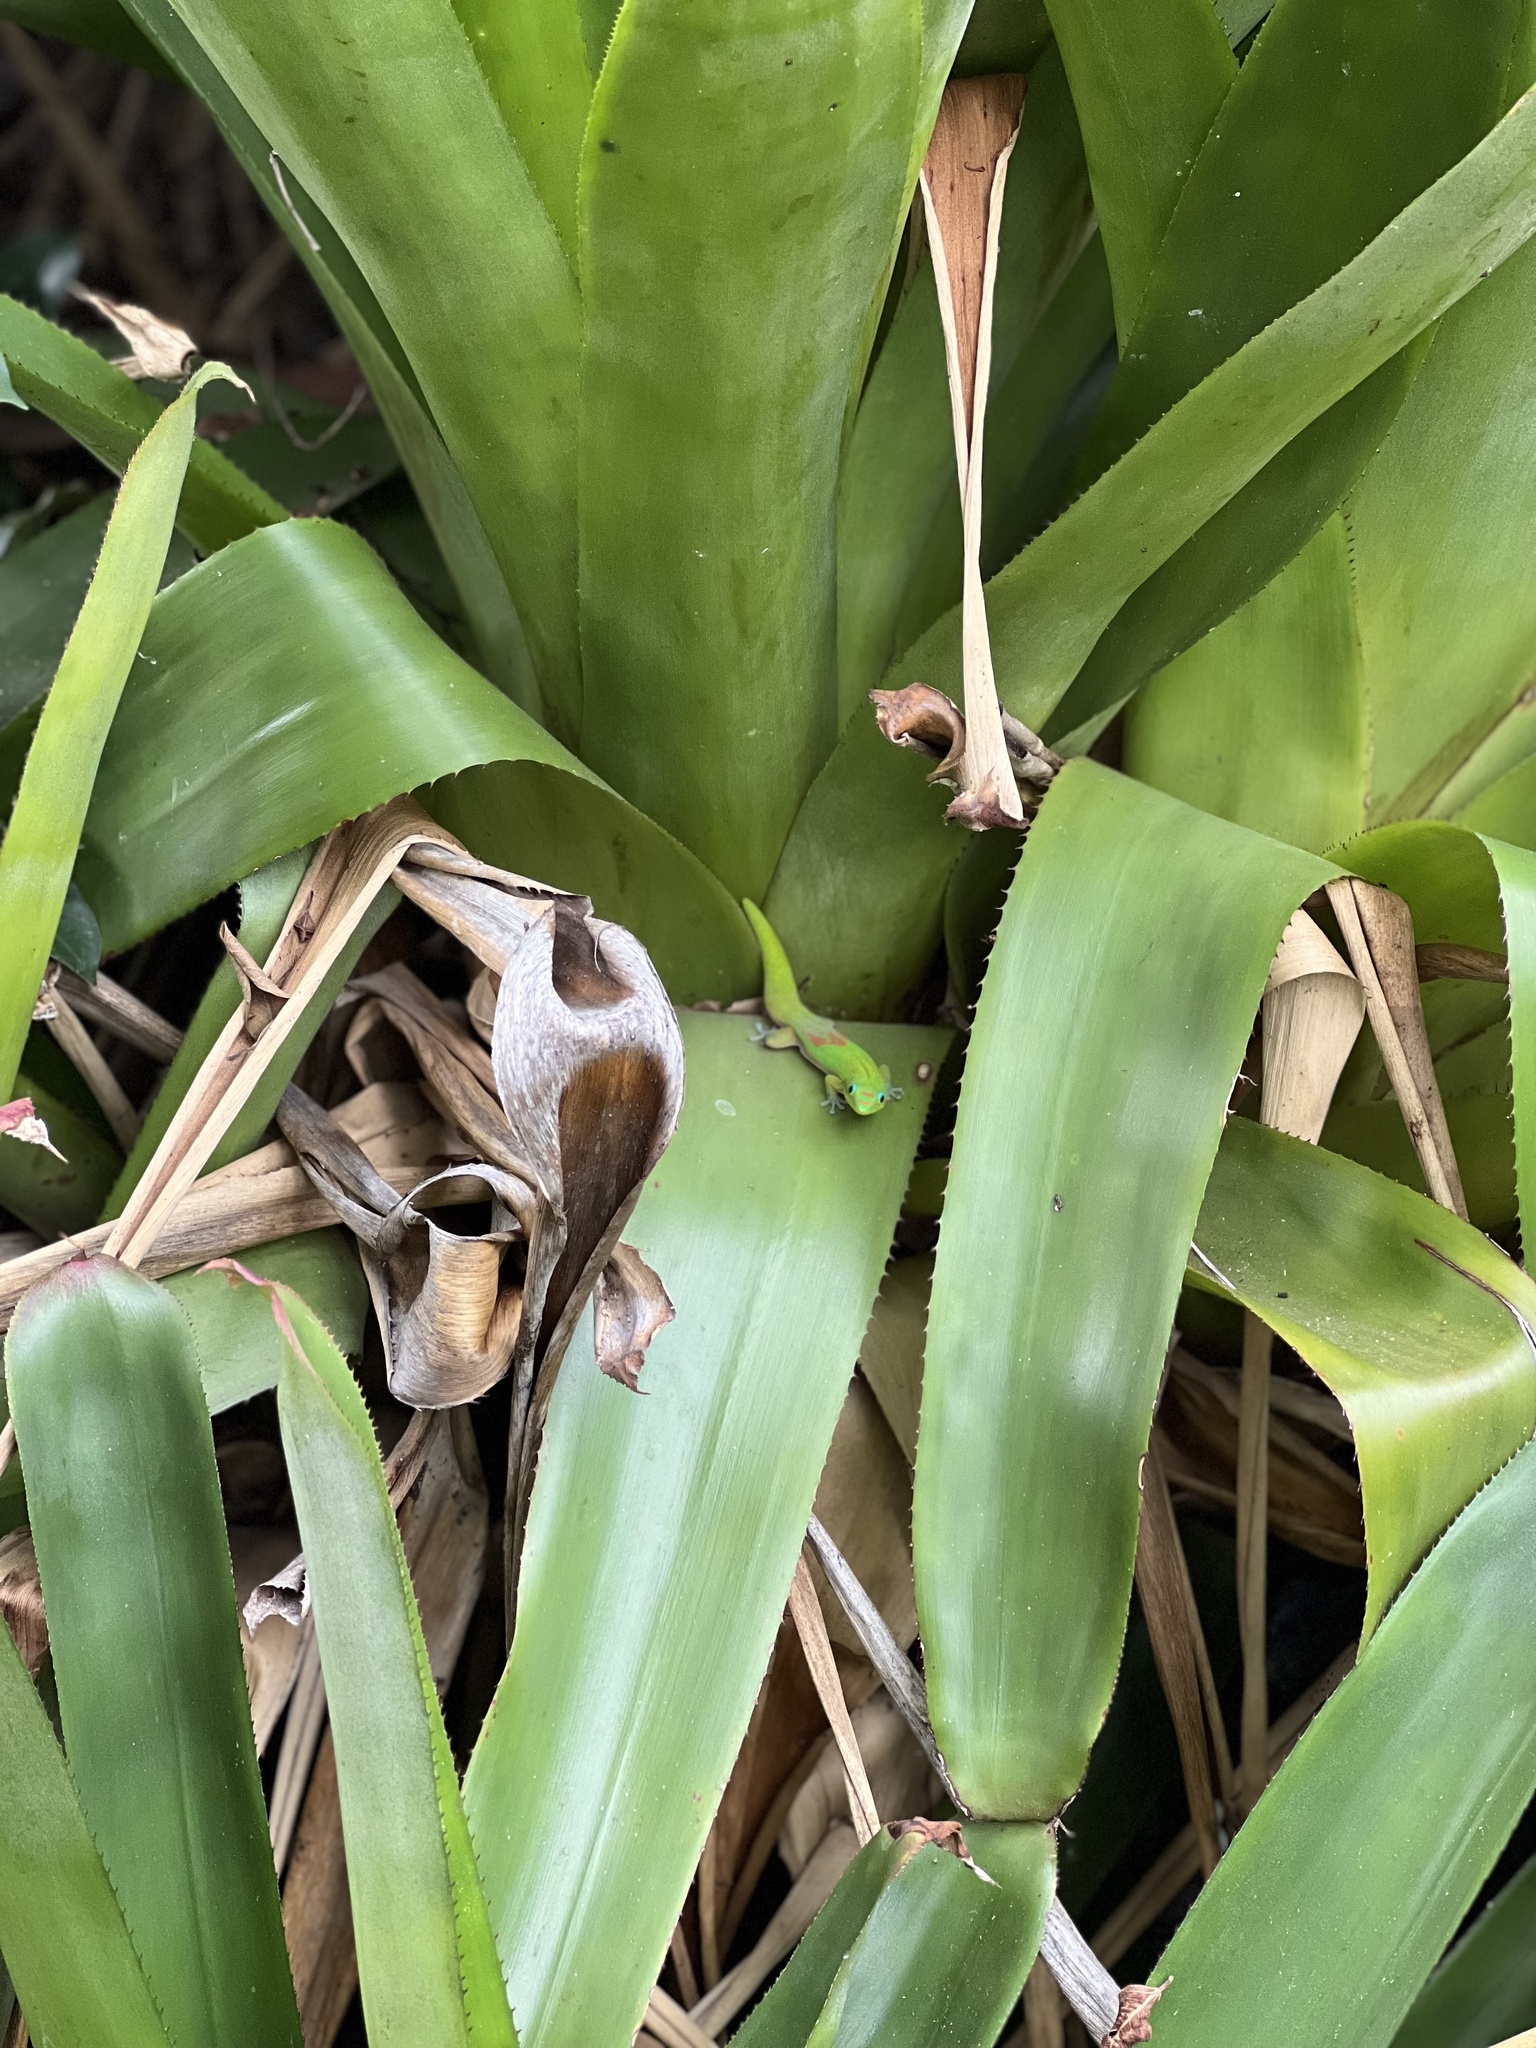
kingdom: Animalia
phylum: Chordata
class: Squamata
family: Gekkonidae
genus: Phelsuma
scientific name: Phelsuma laticauda
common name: Gold dust day gecko
